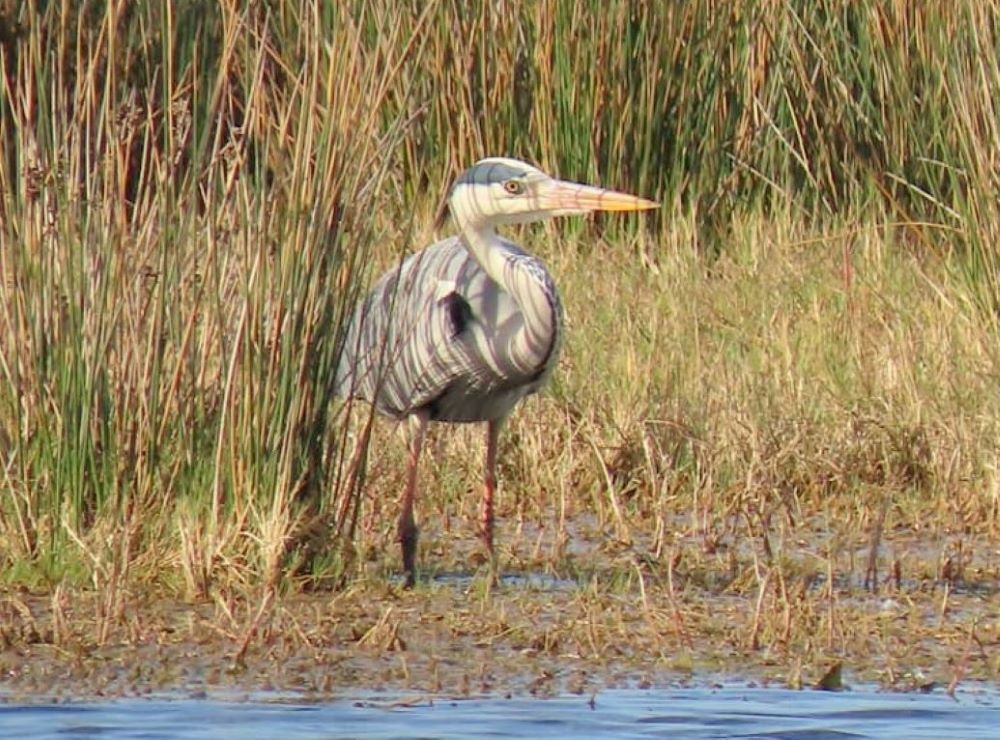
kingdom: Animalia
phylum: Chordata
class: Aves
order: Pelecaniformes
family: Ardeidae
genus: Ardea
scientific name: Ardea cinerea
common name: Grey heron
